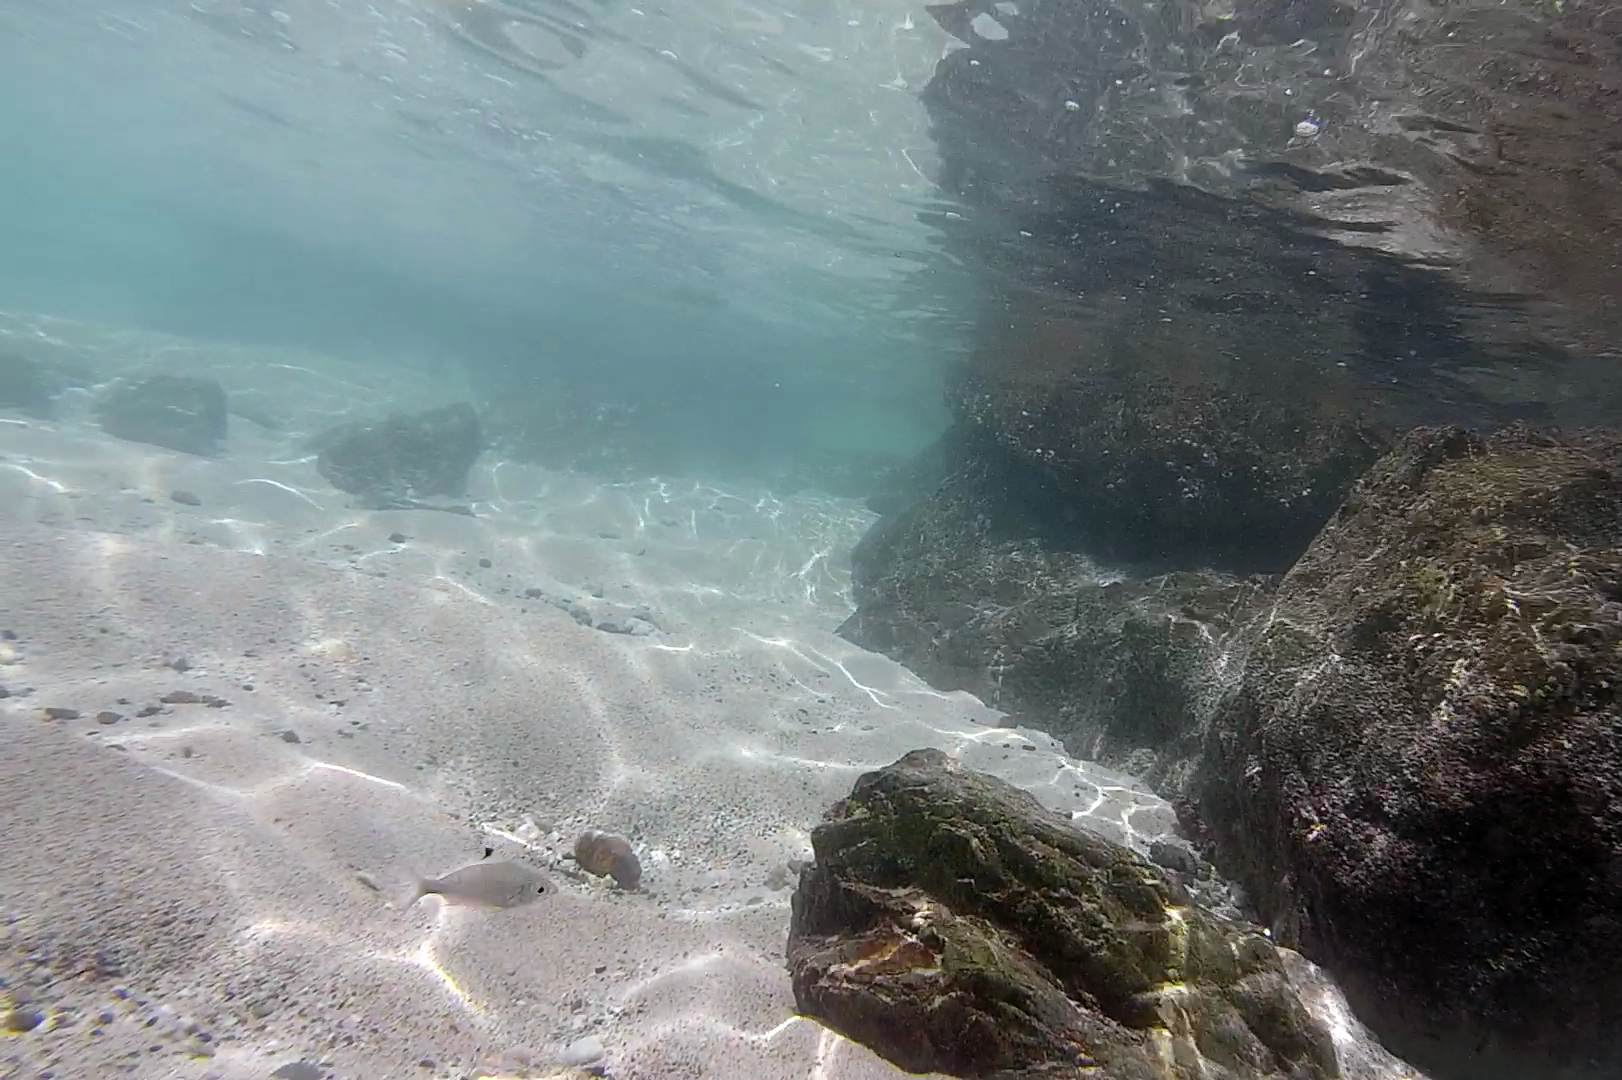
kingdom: Animalia
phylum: Chordata
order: Perciformes
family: Gerreidae
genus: Gerres
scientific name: Gerres oyena
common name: Common silver-biddy
